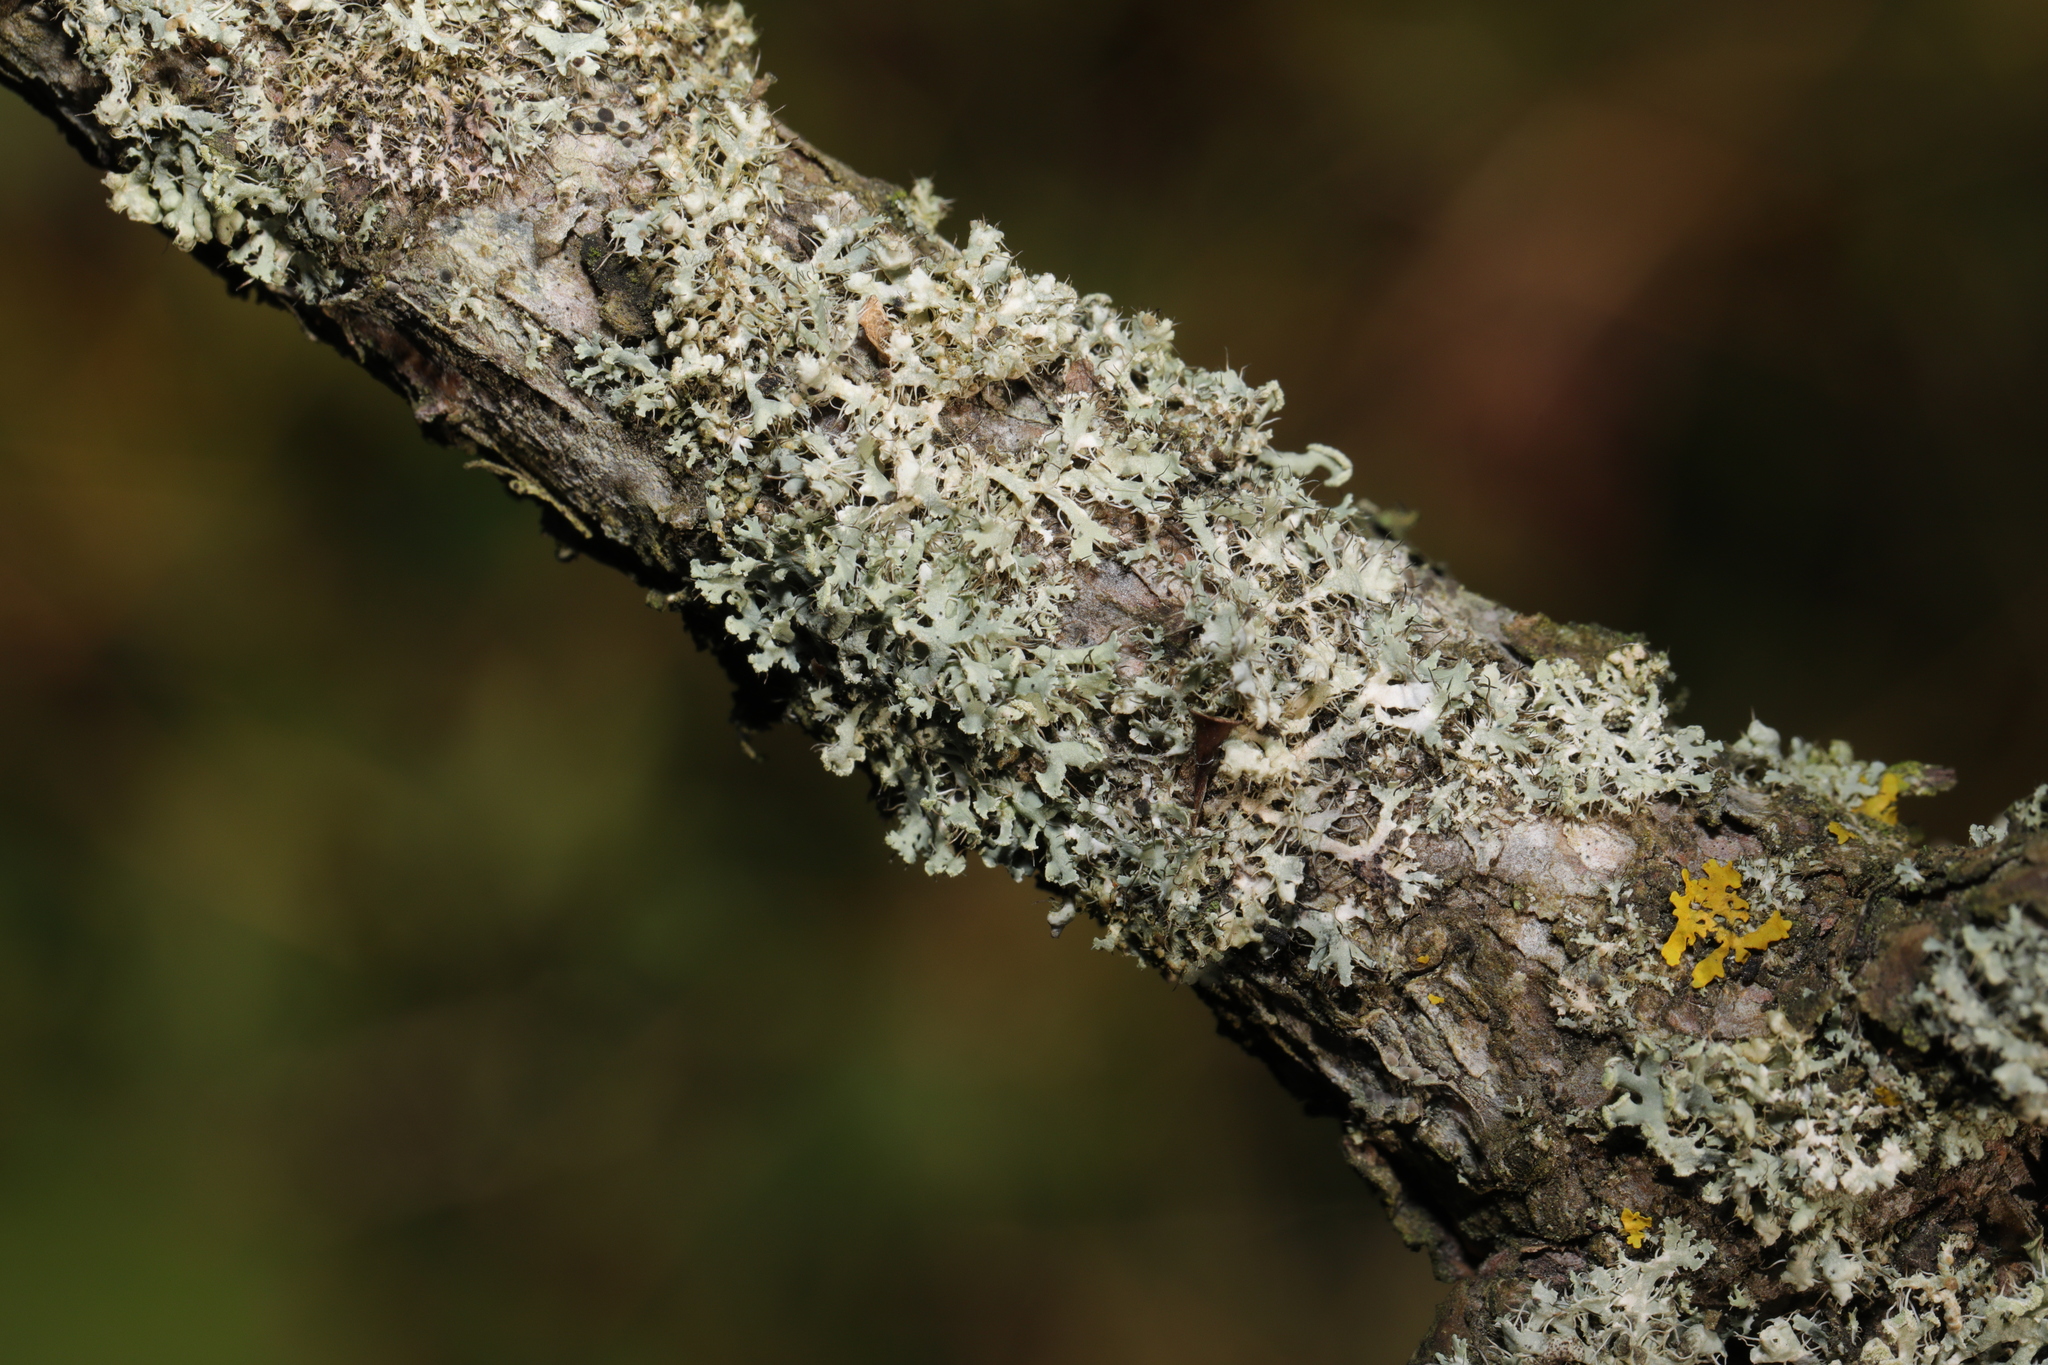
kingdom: Fungi
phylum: Ascomycota
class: Lecanoromycetes
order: Caliciales
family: Physciaceae
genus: Physcia
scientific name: Physcia tenella
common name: Fringed rosette lichen
